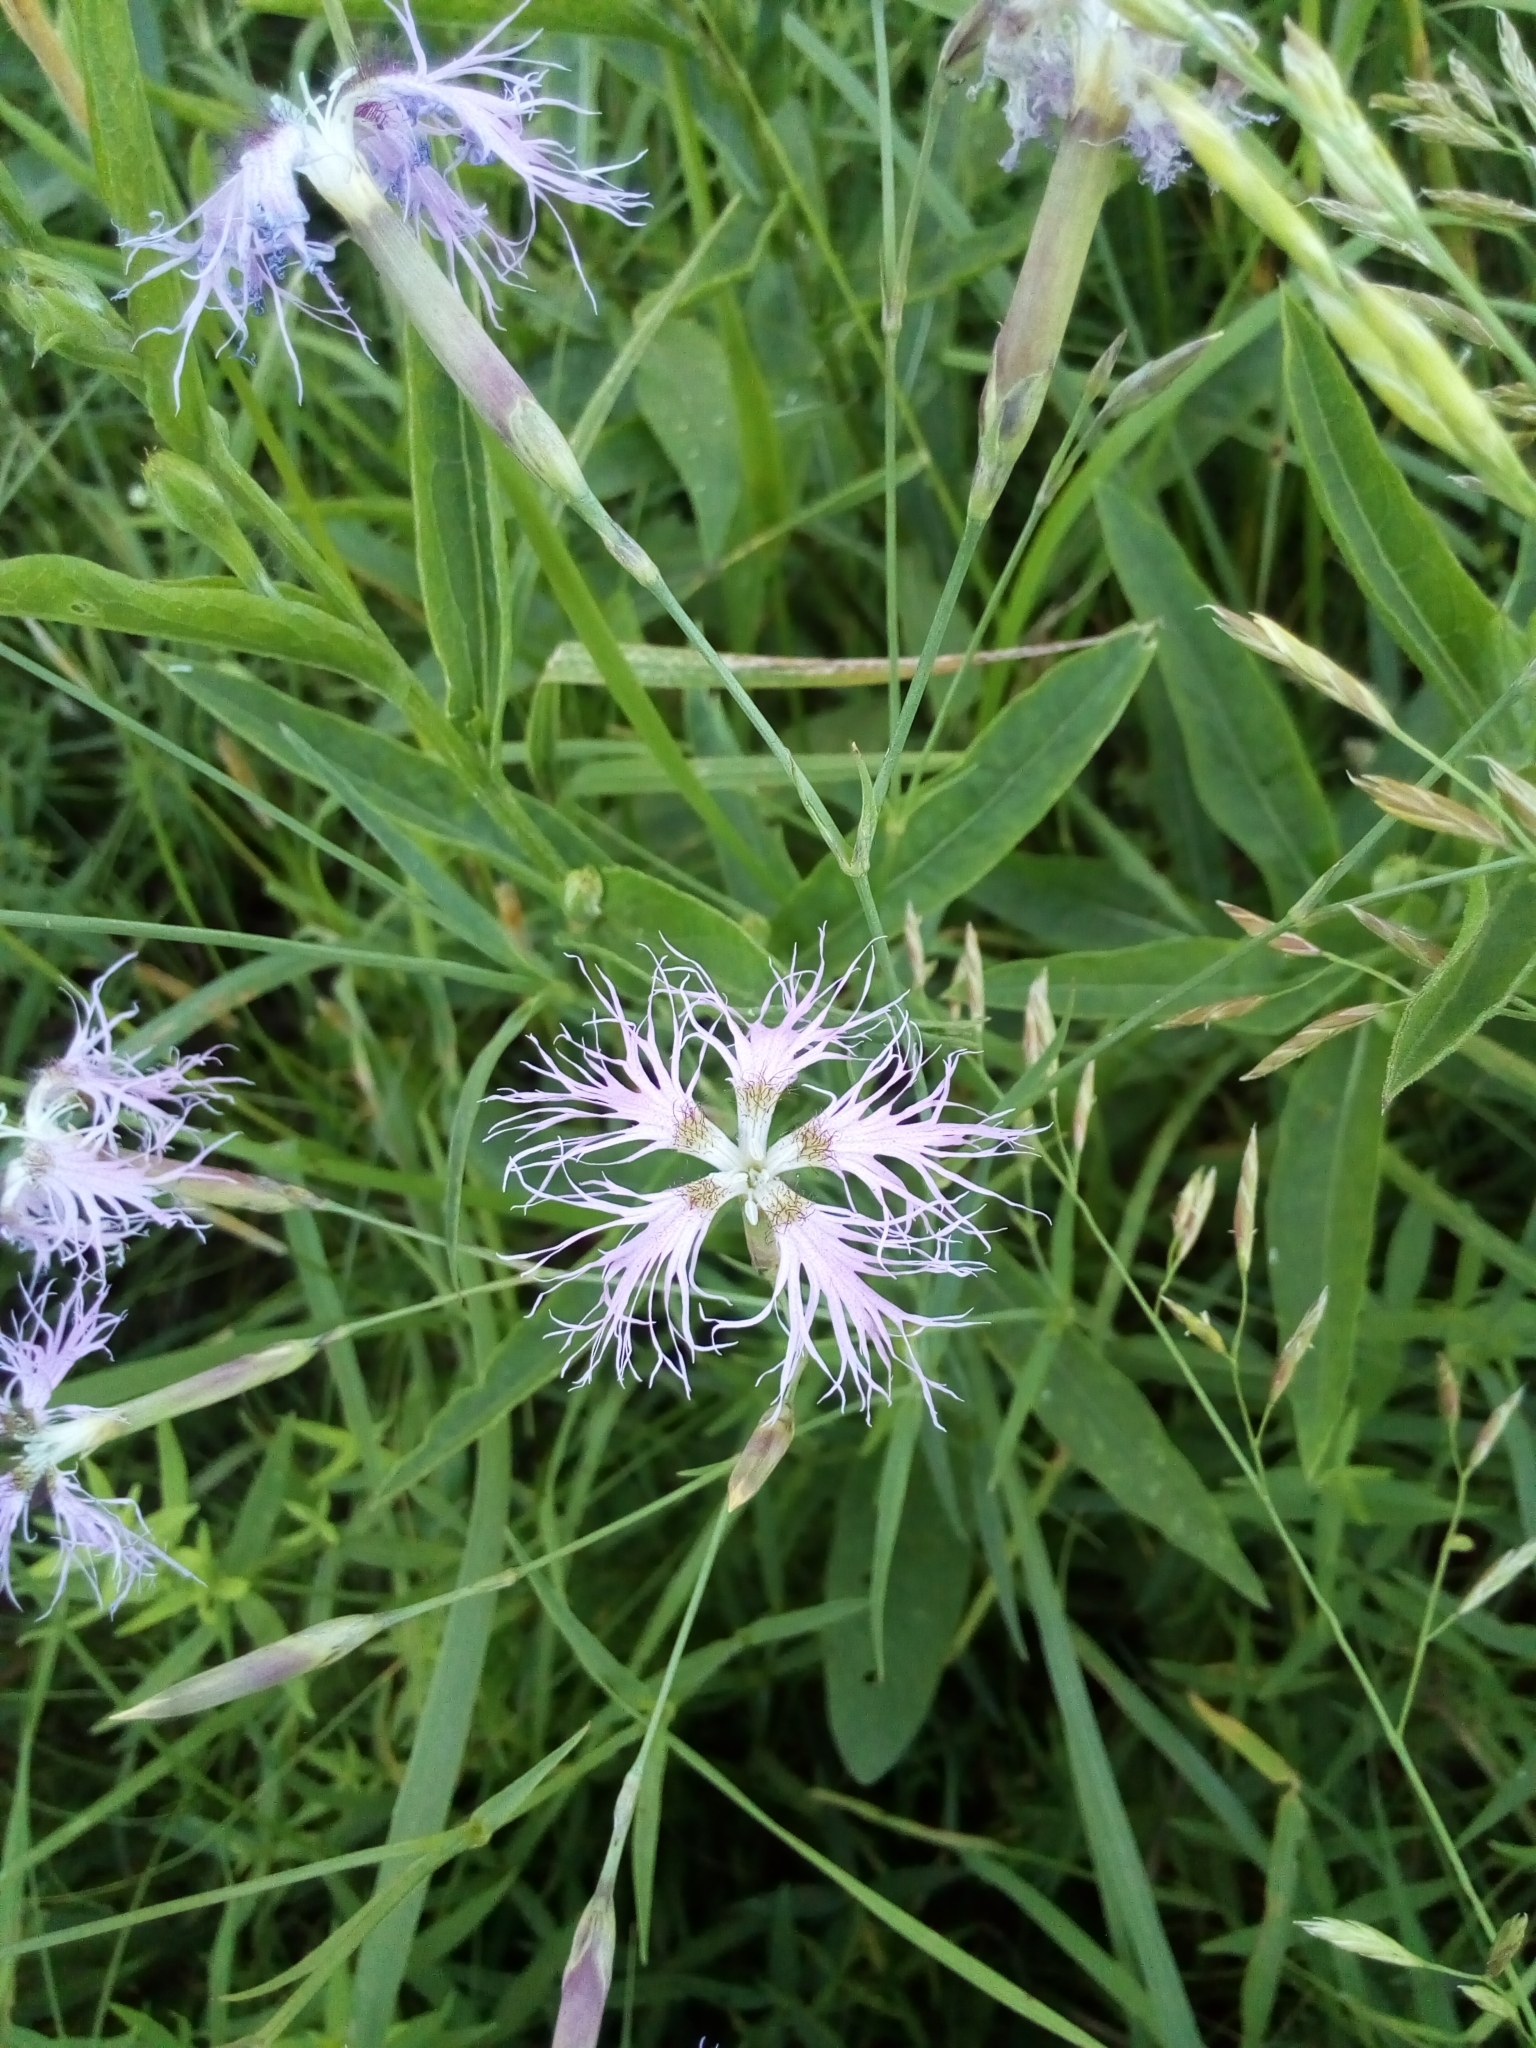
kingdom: Plantae
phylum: Tracheophyta
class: Magnoliopsida
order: Caryophyllales
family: Caryophyllaceae
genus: Dianthus
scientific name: Dianthus superbus
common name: Fringed pink
